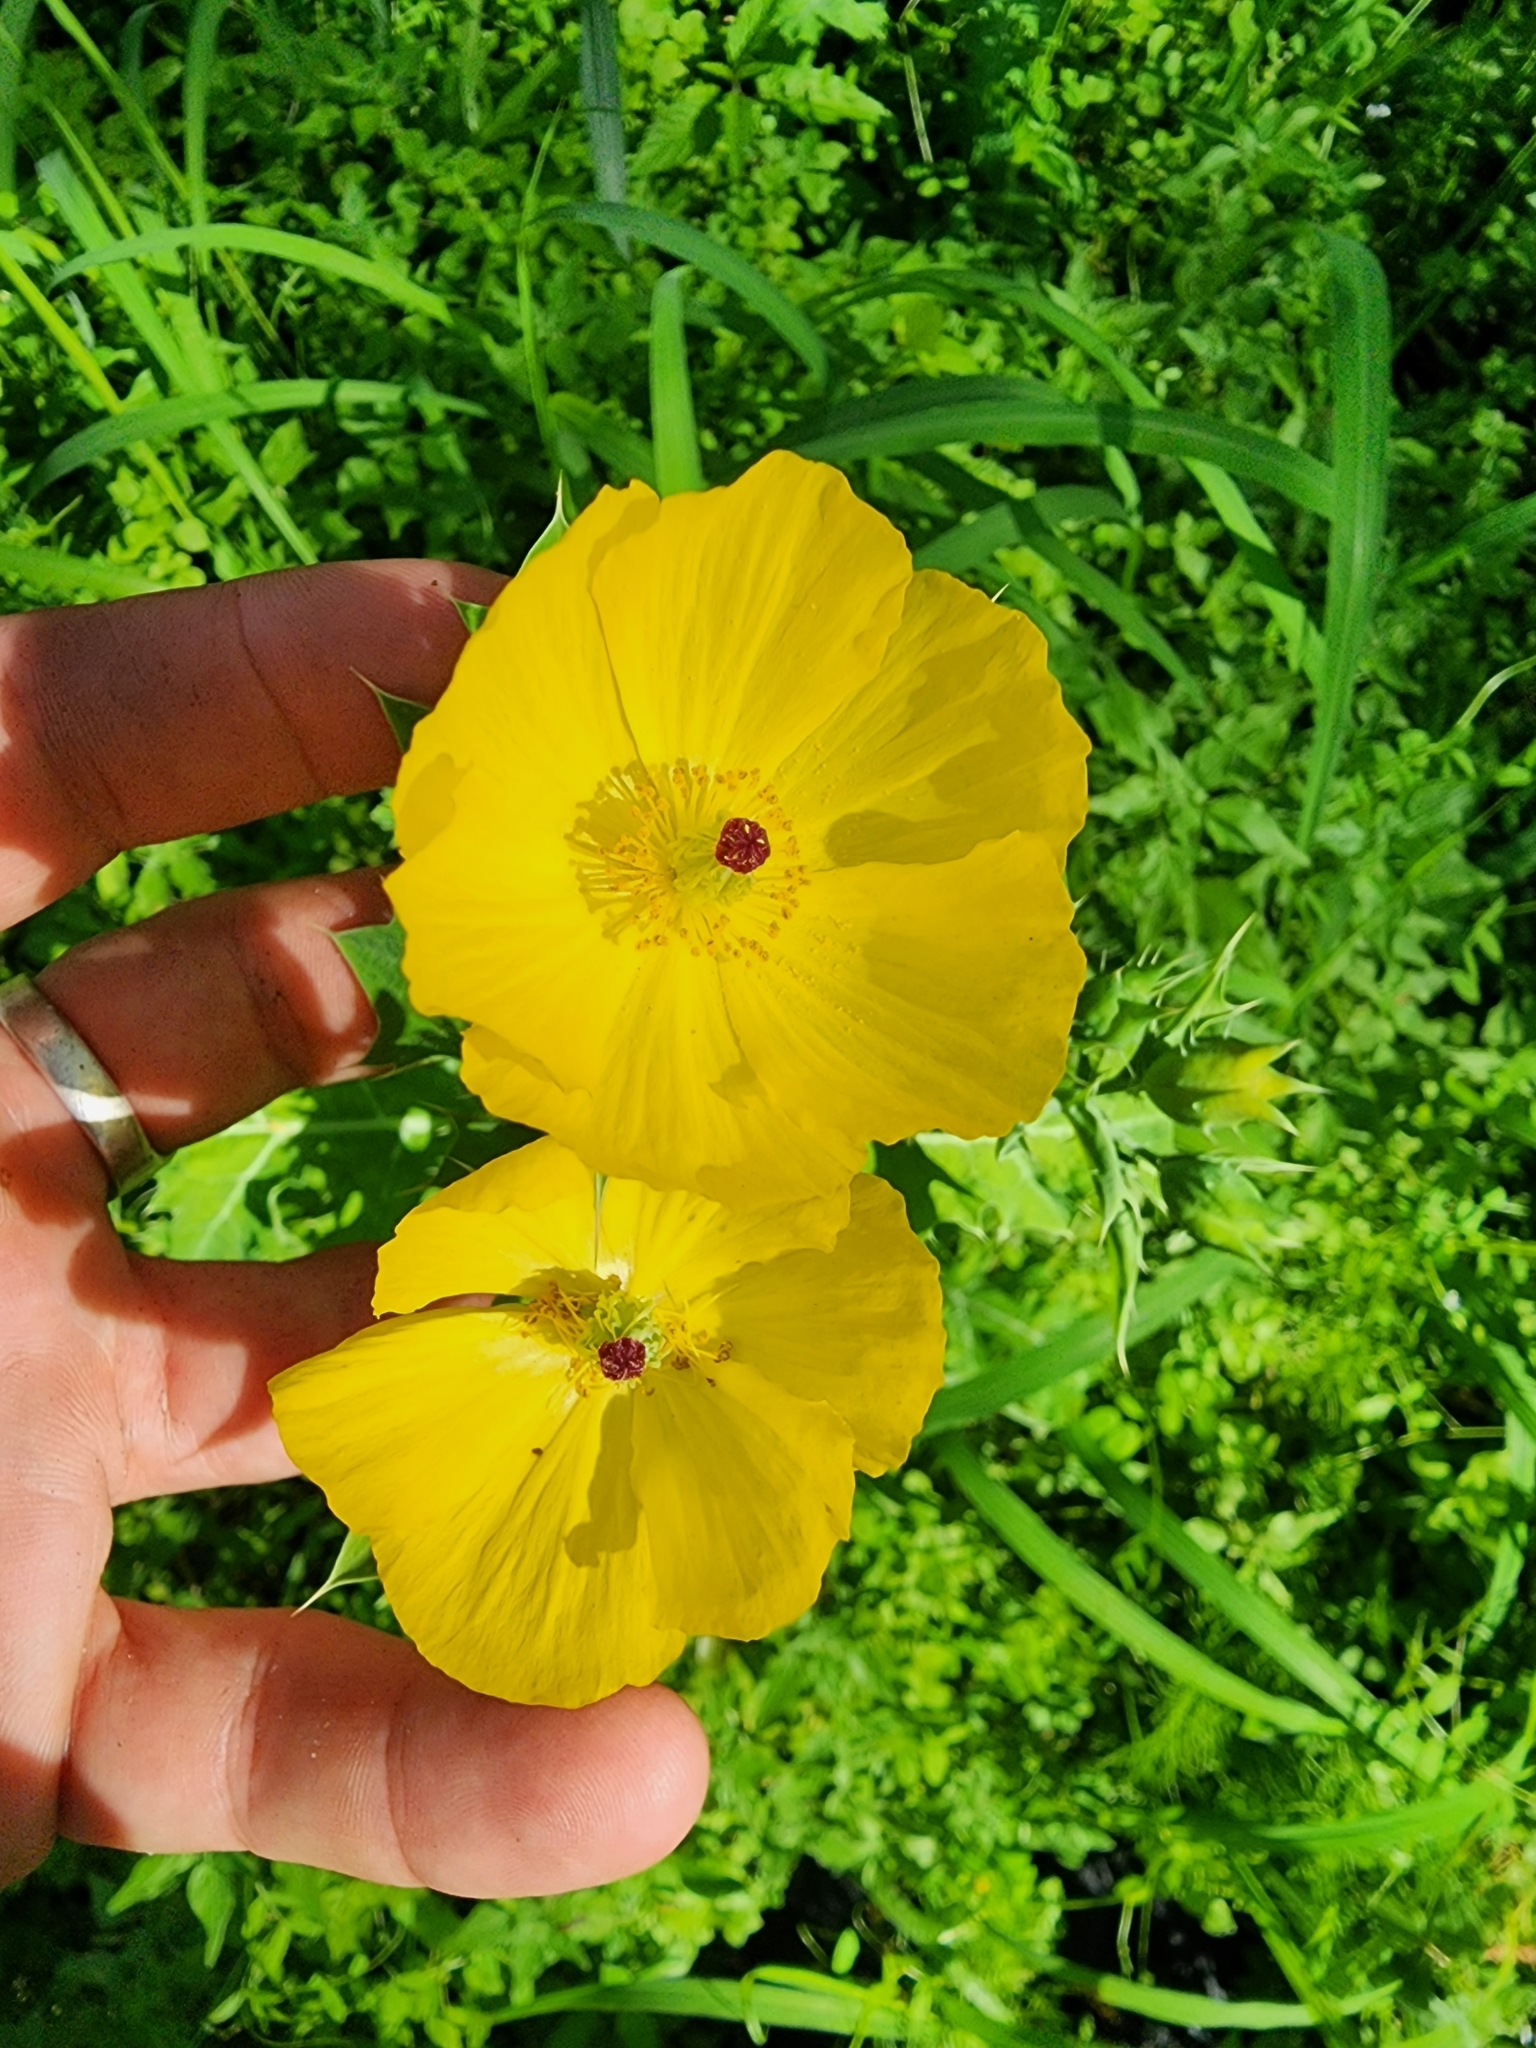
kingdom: Plantae
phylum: Tracheophyta
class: Magnoliopsida
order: Ranunculales
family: Papaveraceae
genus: Argemone
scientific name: Argemone mexicana
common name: Mexican poppy
